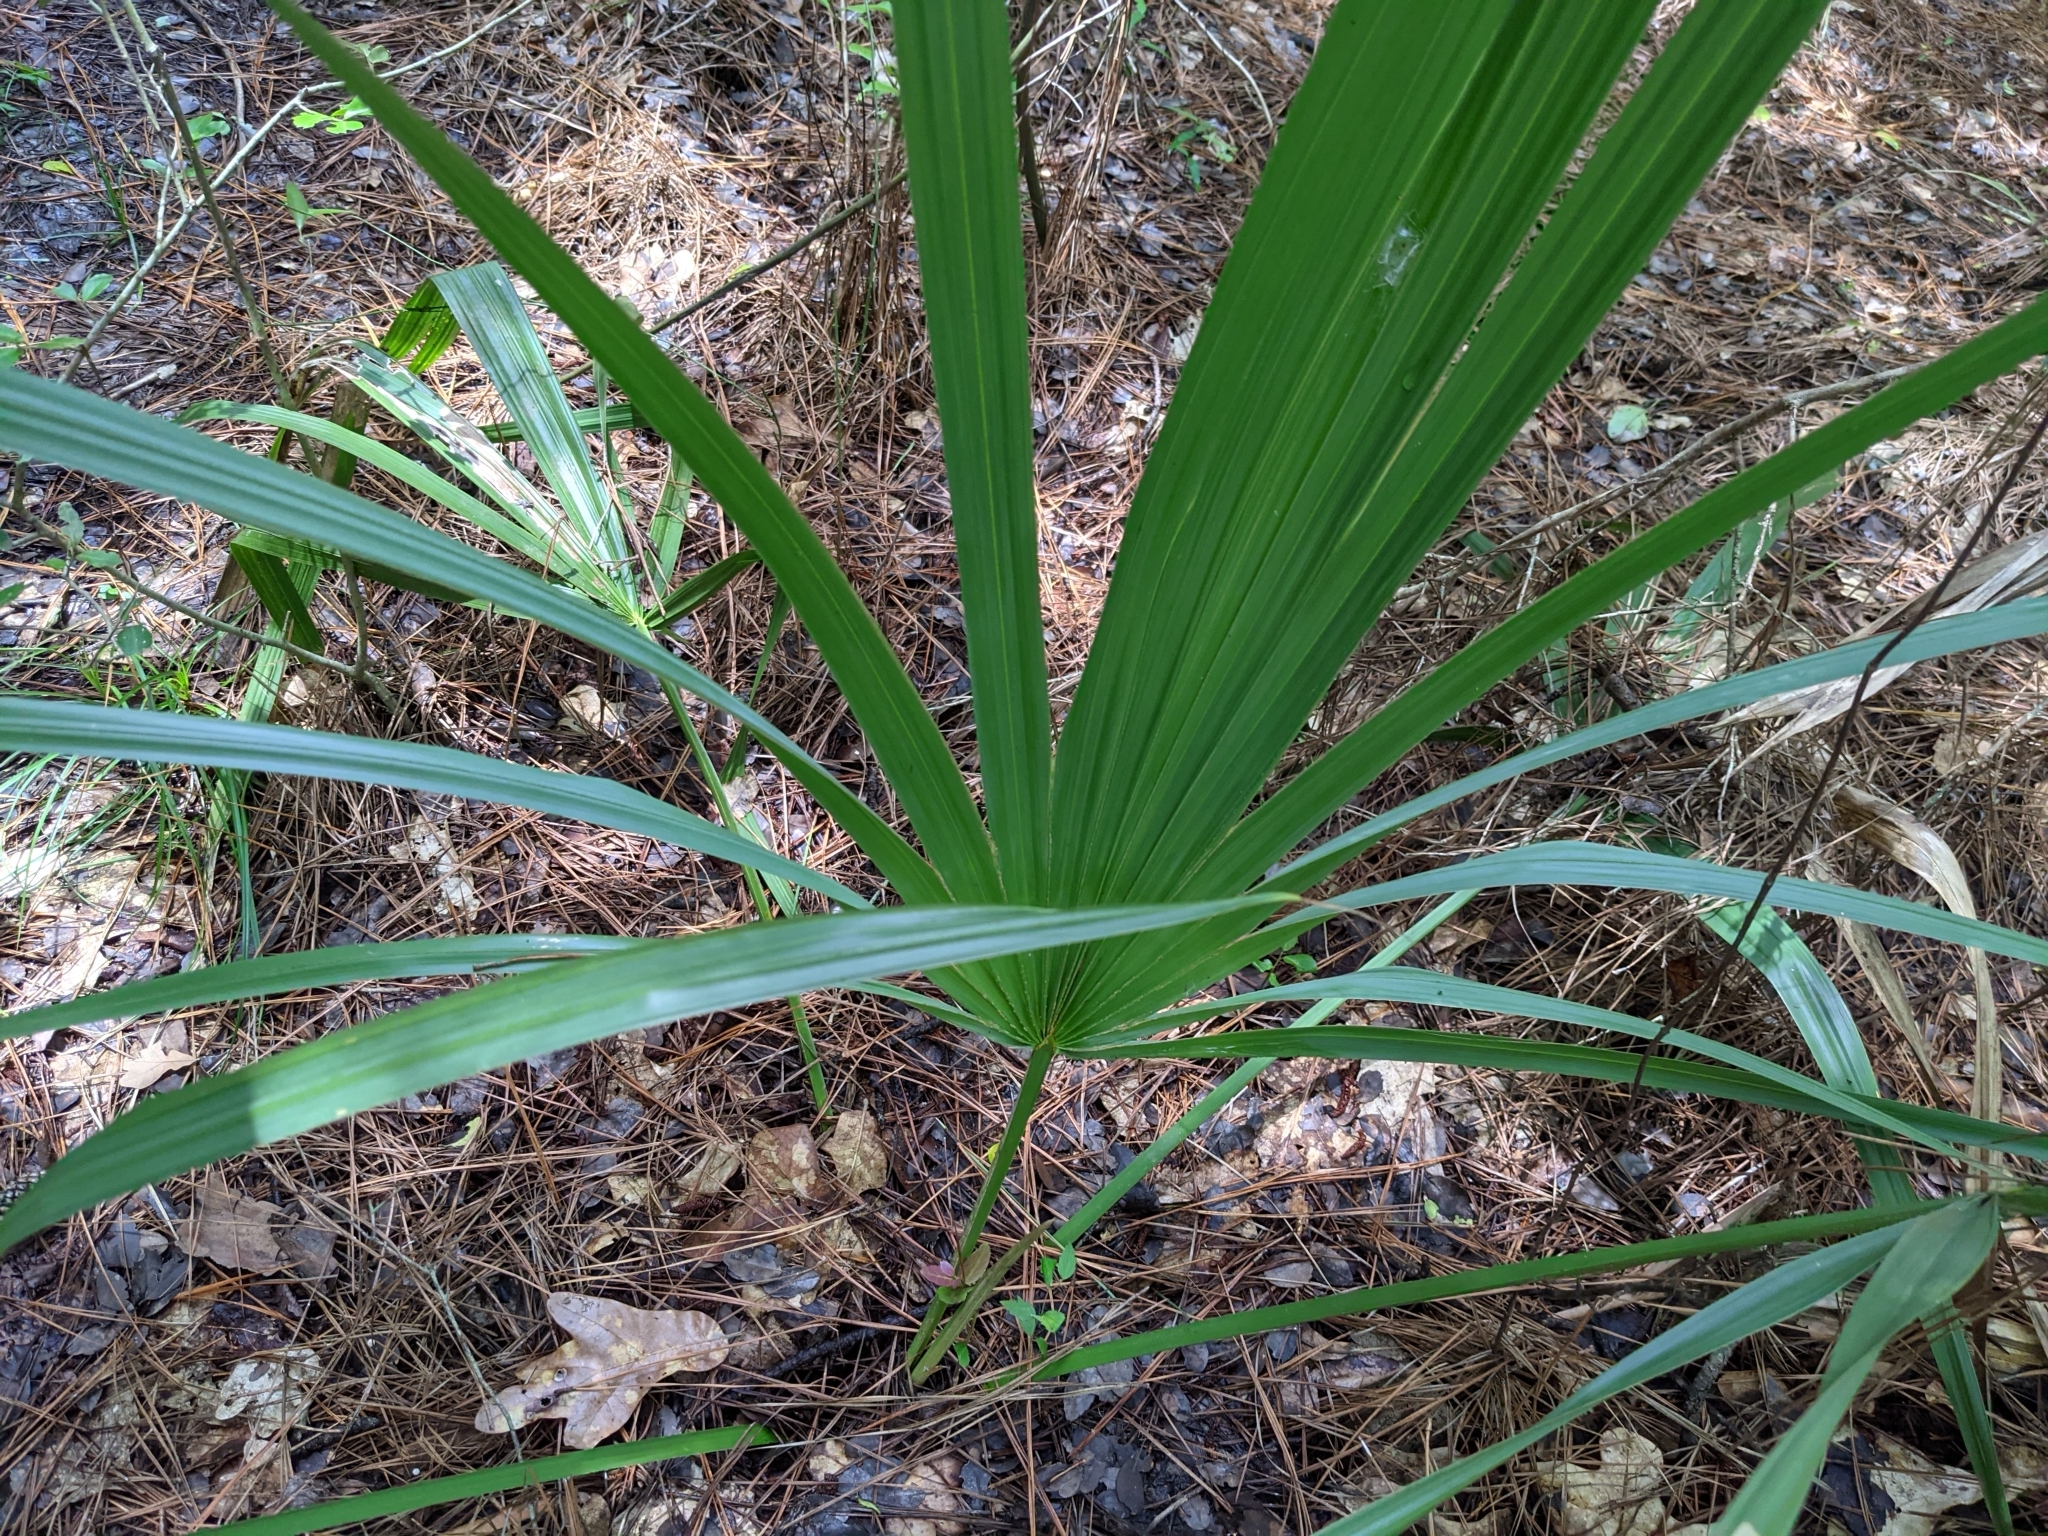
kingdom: Plantae
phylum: Tracheophyta
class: Liliopsida
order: Arecales
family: Arecaceae
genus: Sabal
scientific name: Sabal minor
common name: Dwarf palmetto
